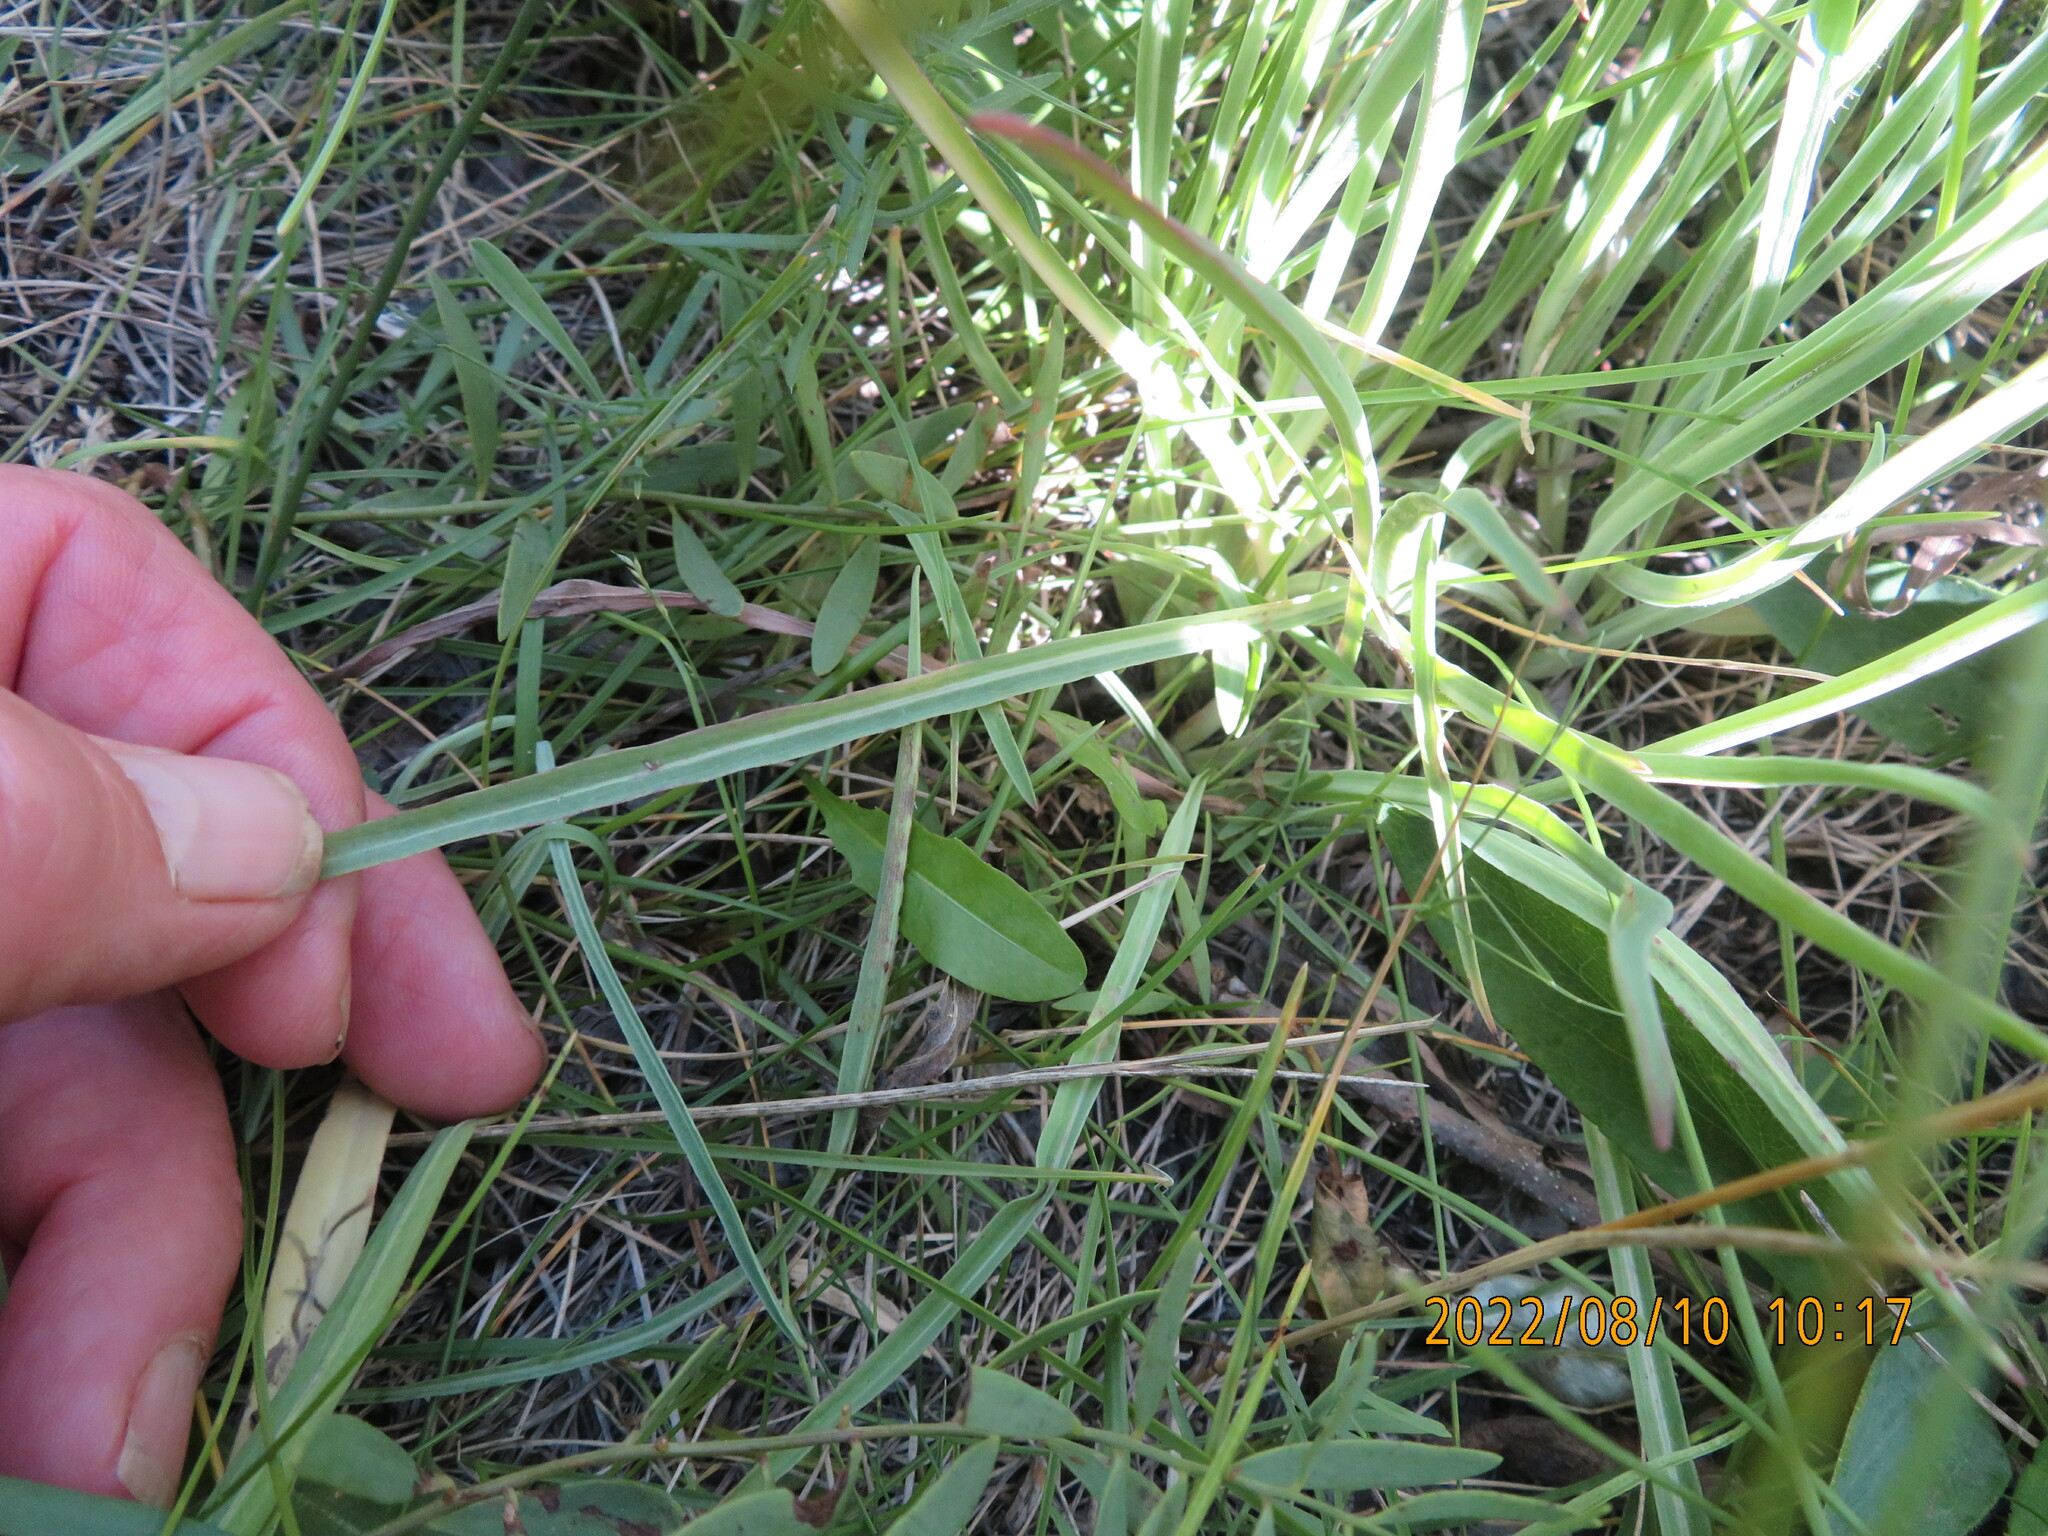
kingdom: Plantae
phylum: Tracheophyta
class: Magnoliopsida
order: Asterales
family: Asteraceae
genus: Agoseris
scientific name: Agoseris glauca
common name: Prairie agoseris
